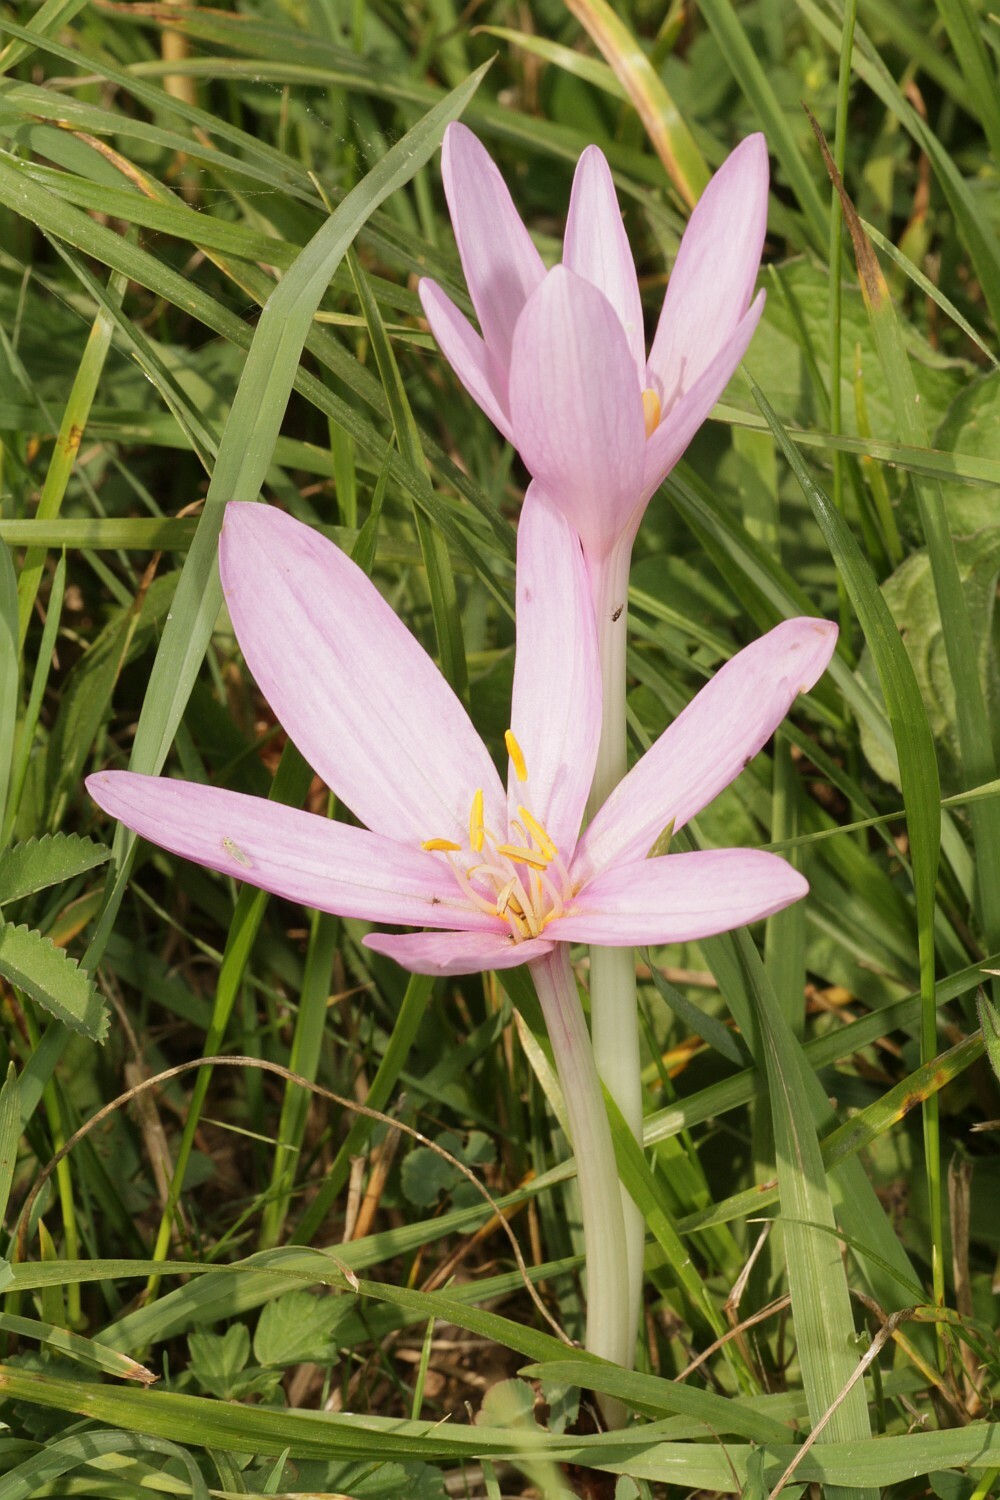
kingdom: Plantae
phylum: Tracheophyta
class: Liliopsida
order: Liliales
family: Colchicaceae
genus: Colchicum
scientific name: Colchicum autumnale
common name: Autumn crocus
